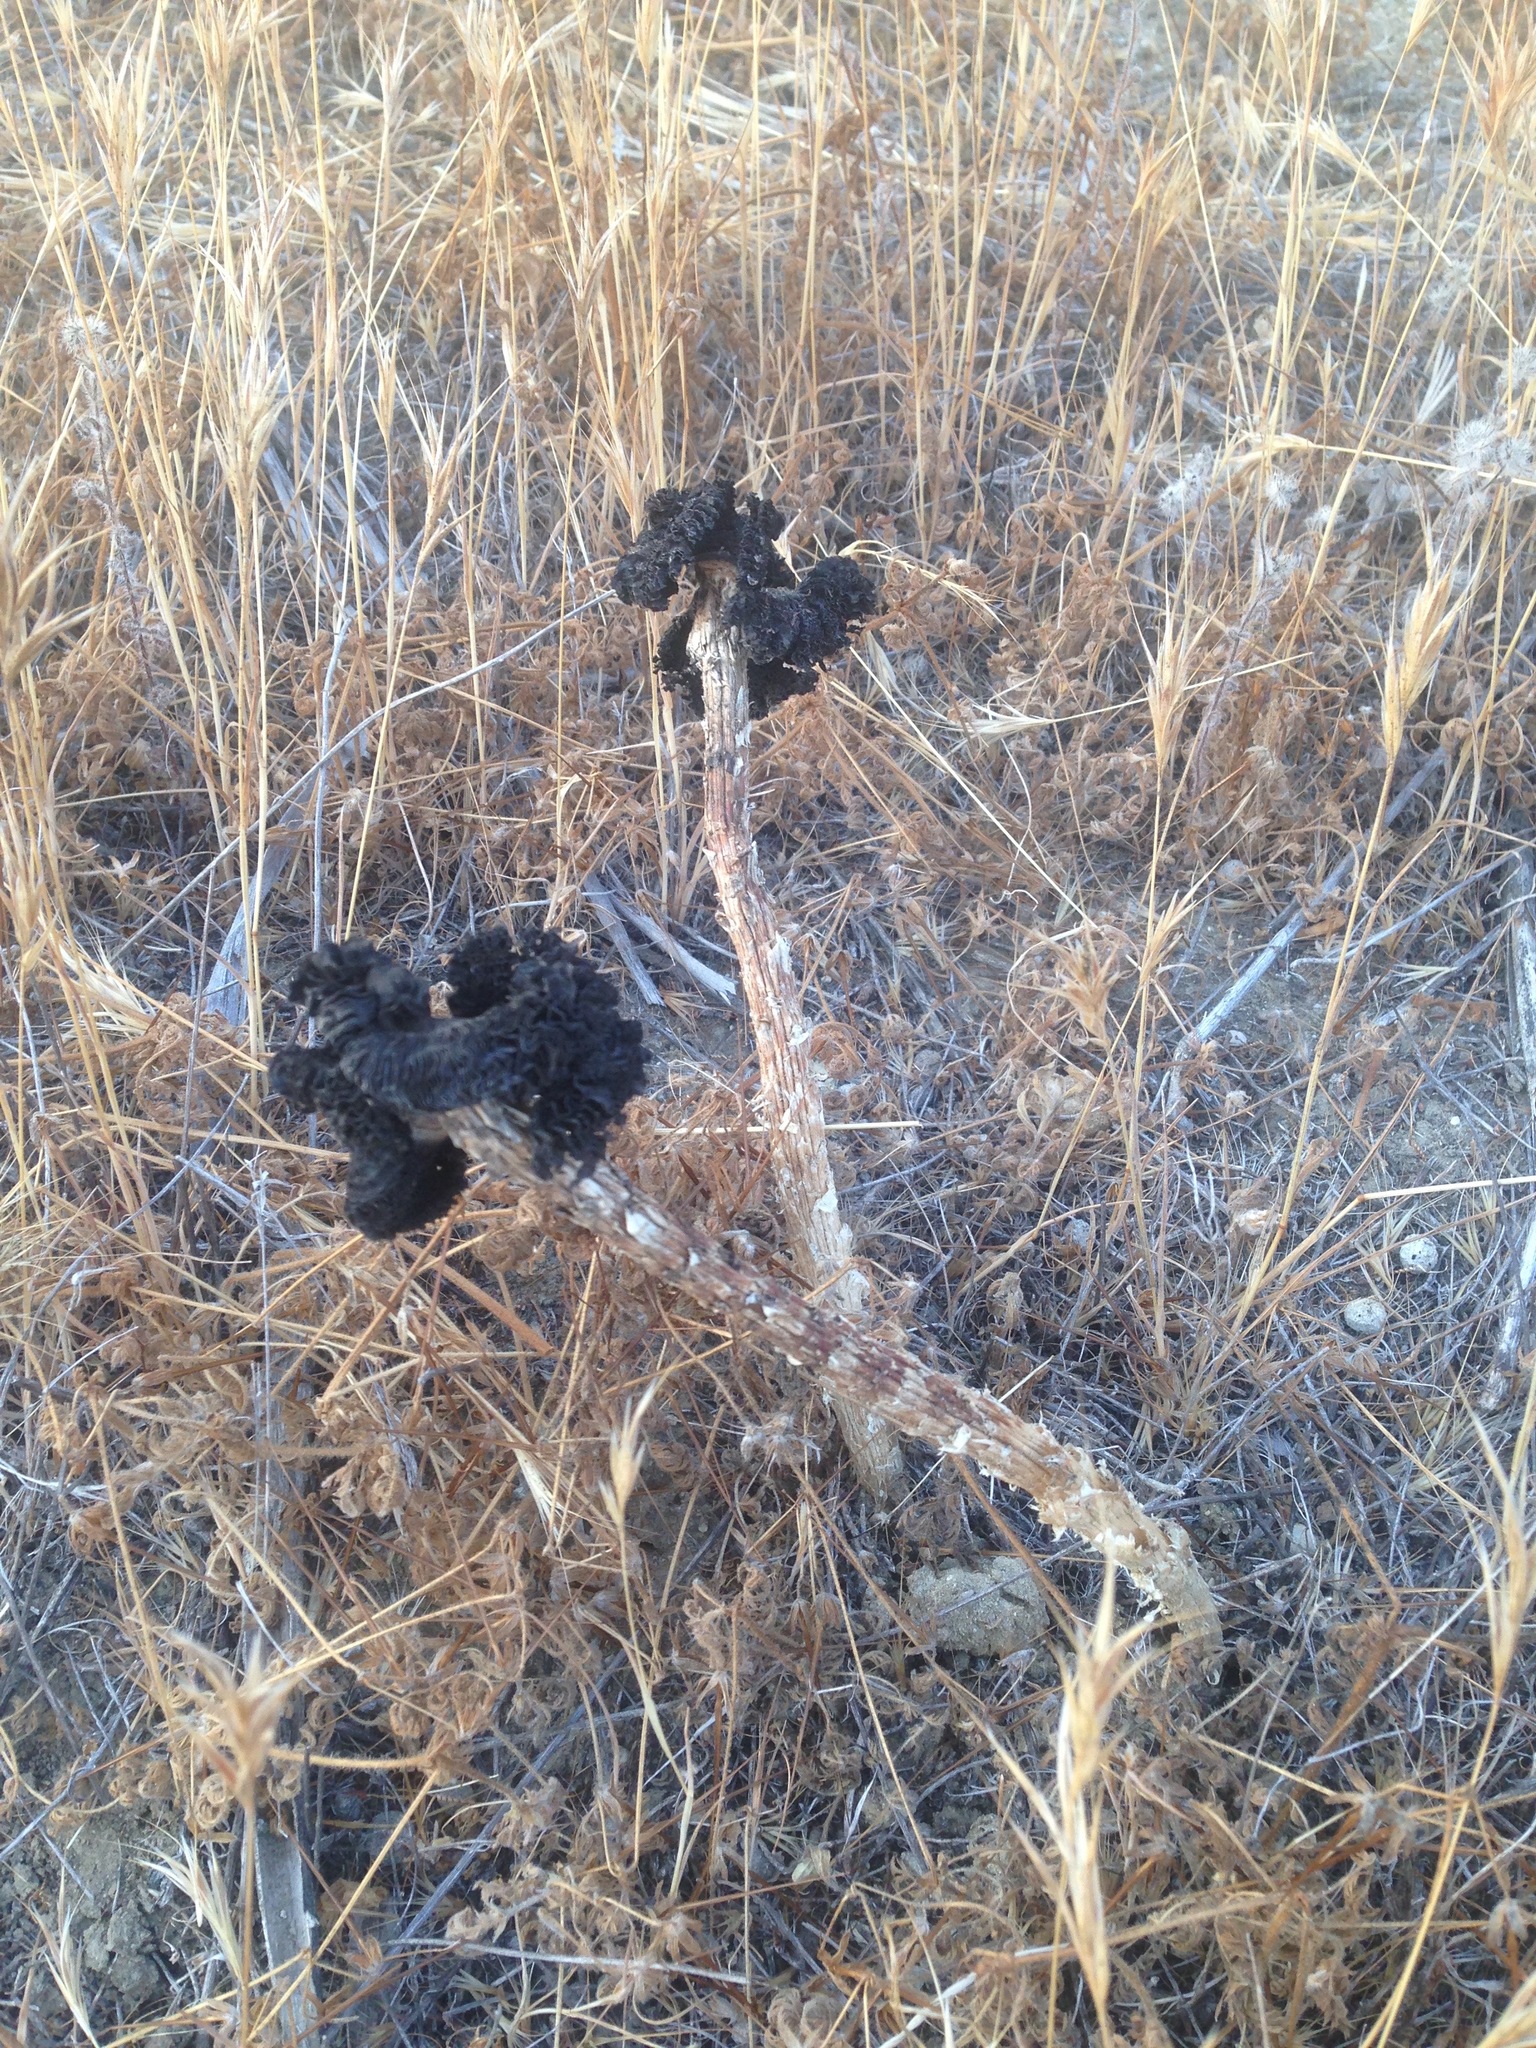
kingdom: Fungi
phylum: Basidiomycota
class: Agaricomycetes
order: Agaricales
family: Agaricaceae
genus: Montagnea
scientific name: Montagnea arenaria
